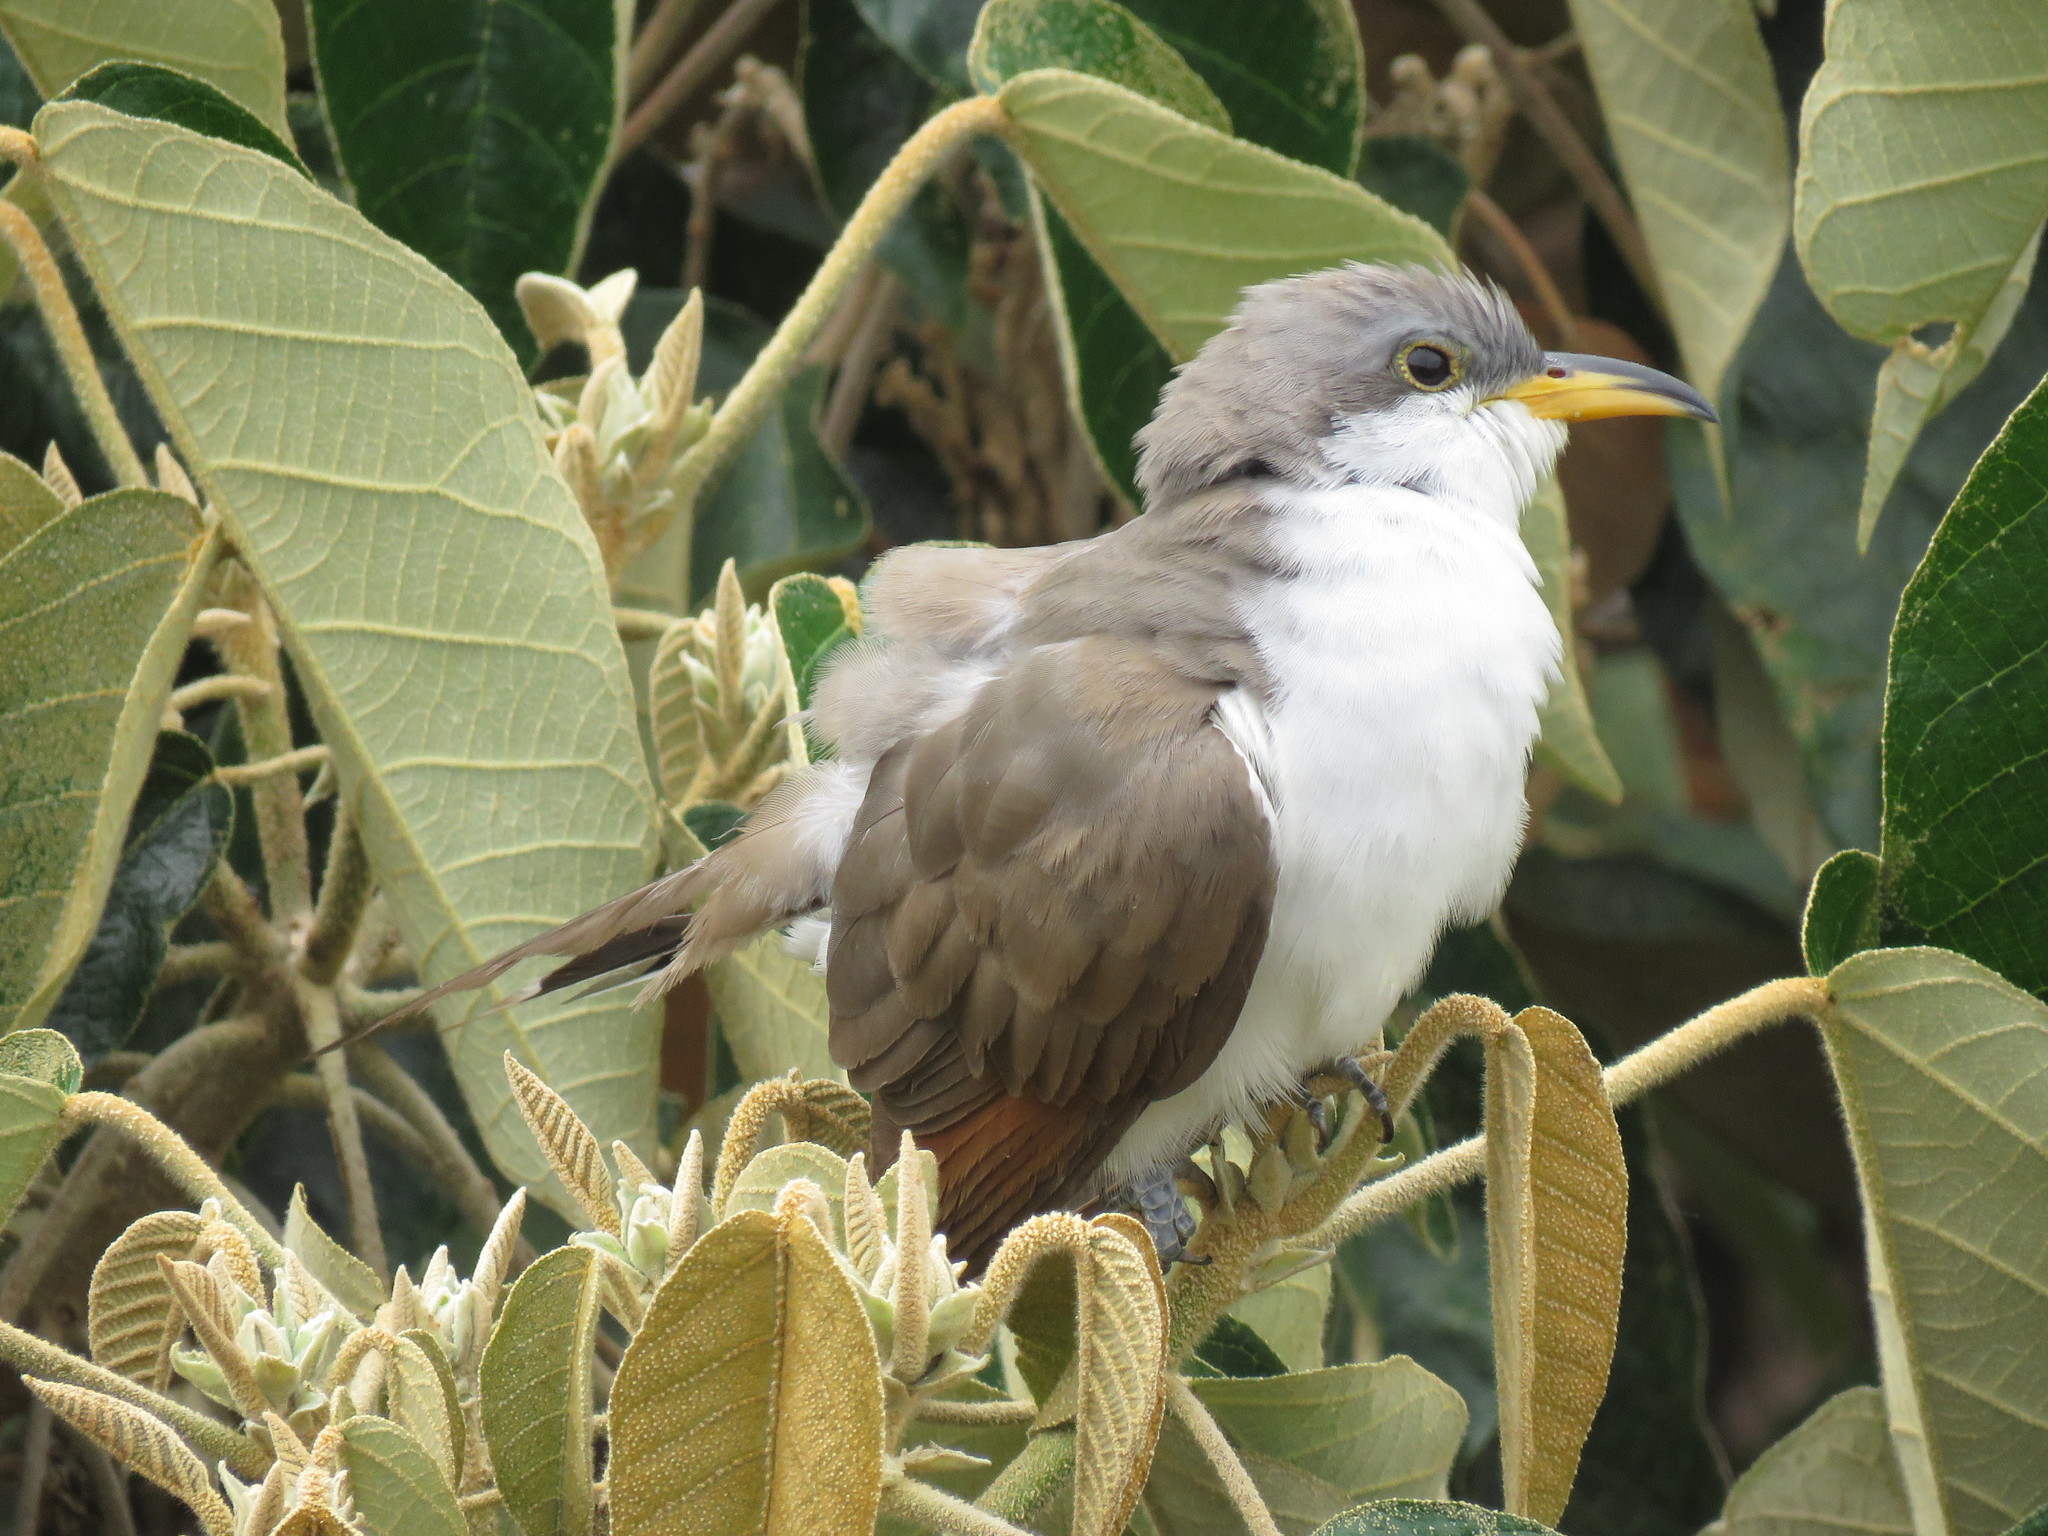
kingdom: Animalia
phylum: Chordata
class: Aves
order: Cuculiformes
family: Cuculidae
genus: Coccyzus
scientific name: Coccyzus americanus
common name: Yellow-billed cuckoo
